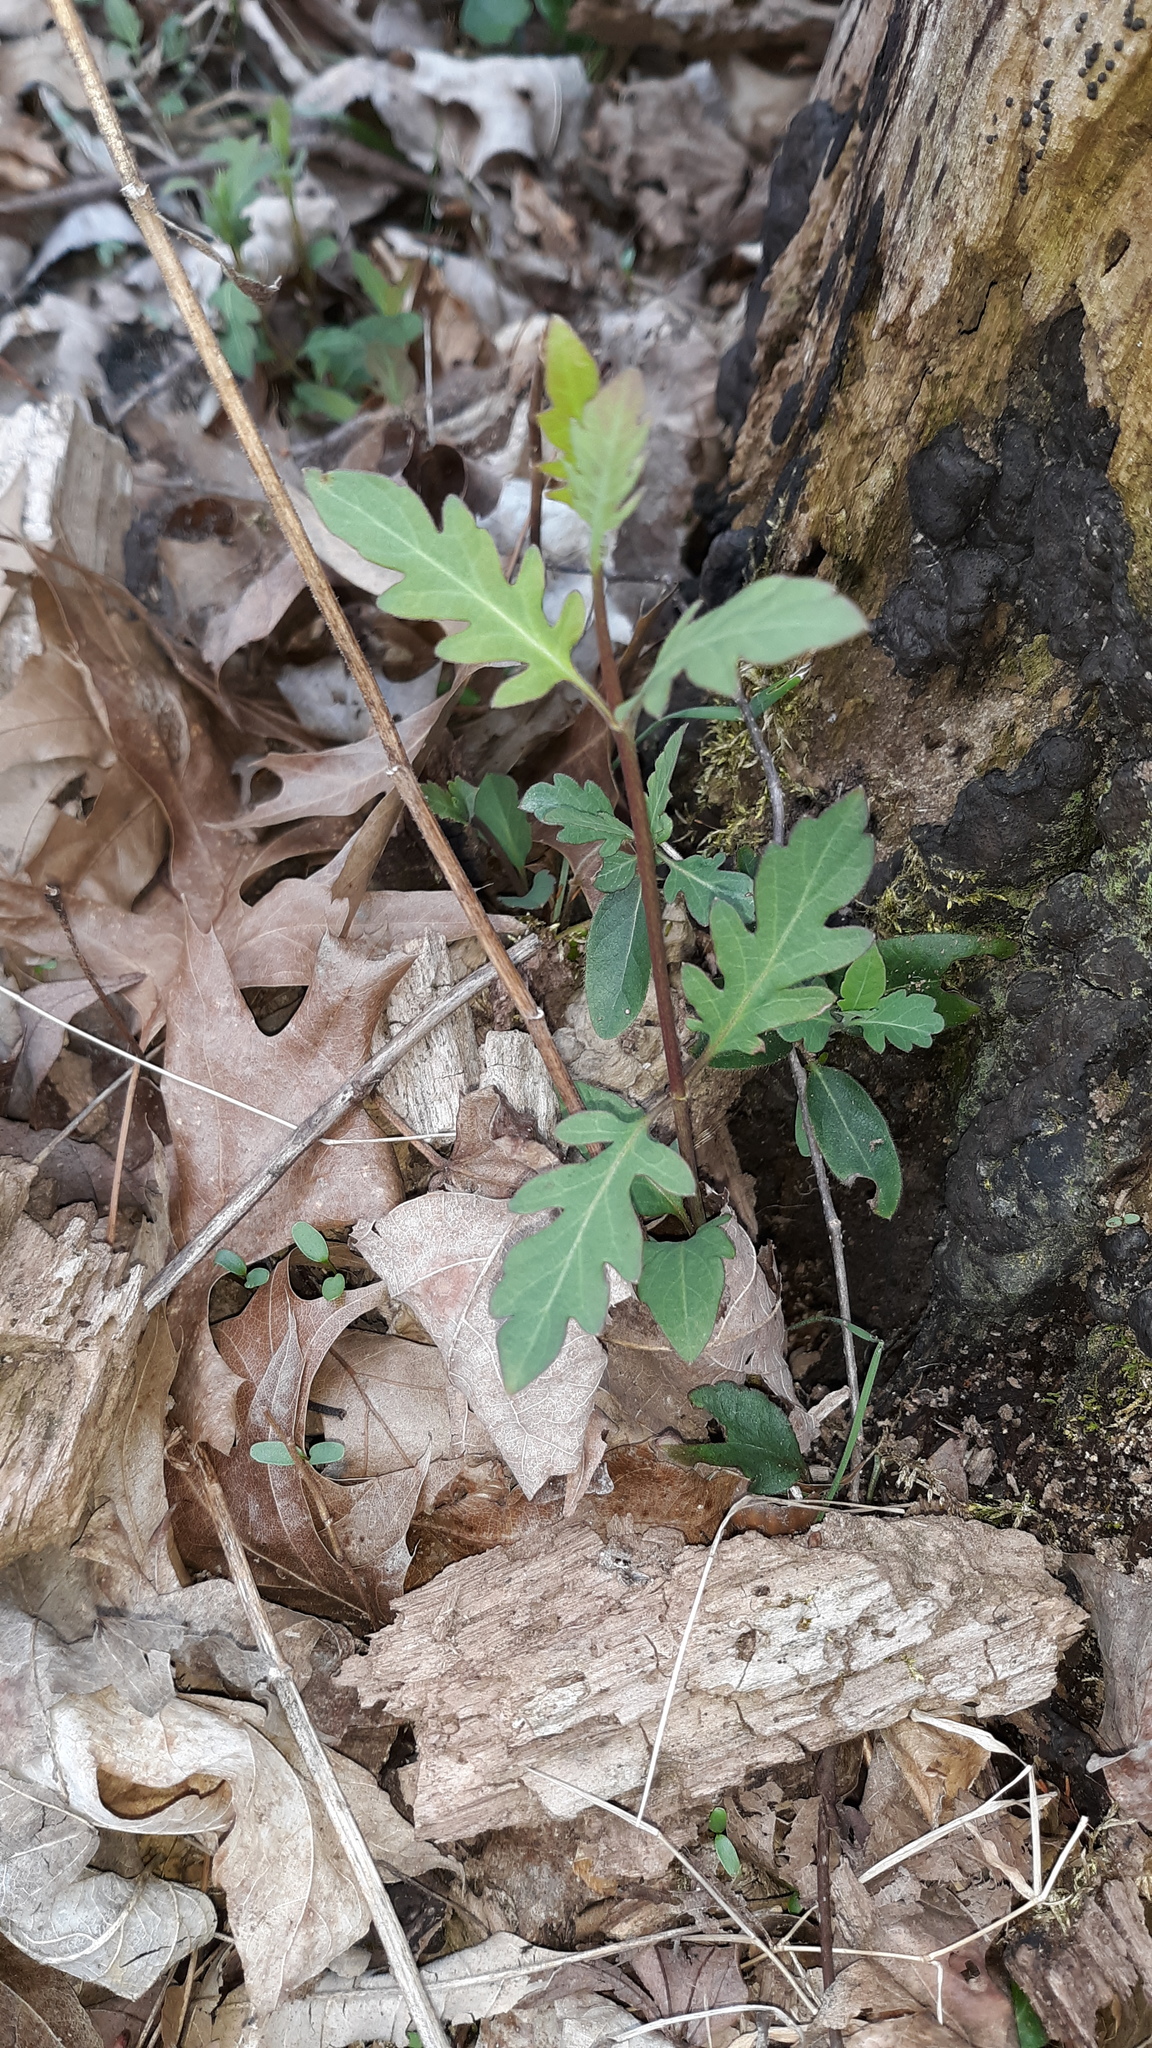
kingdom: Plantae
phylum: Tracheophyta
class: Magnoliopsida
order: Dipsacales
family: Caprifoliaceae
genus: Lonicera
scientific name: Lonicera japonica
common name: Japanese honeysuckle
